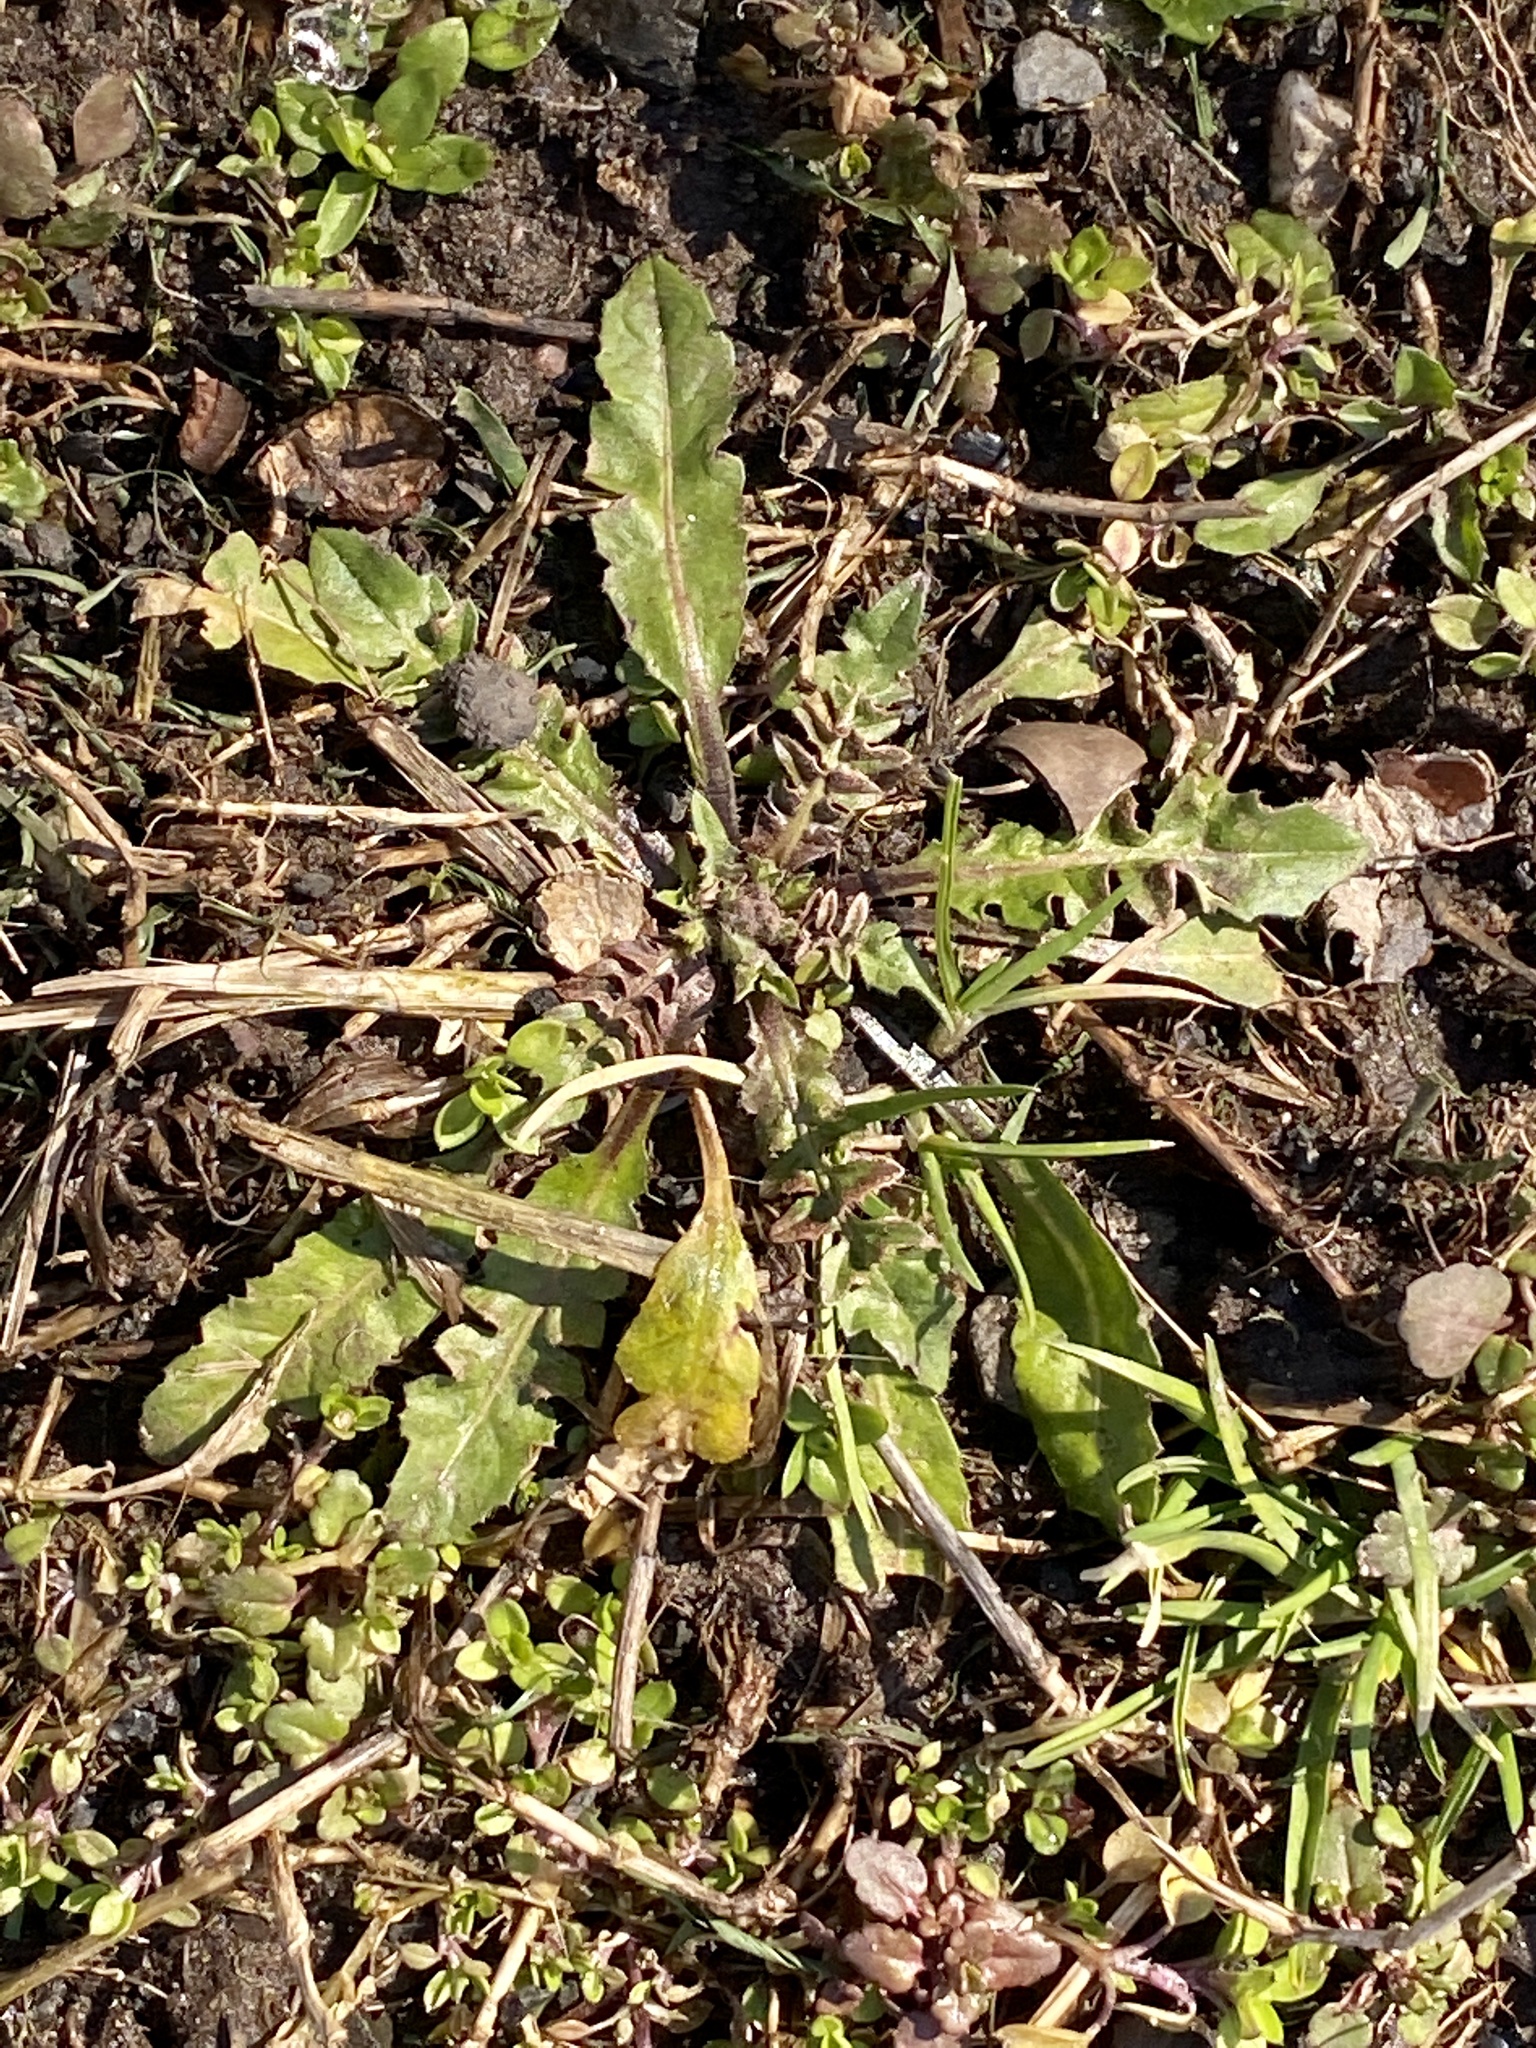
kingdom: Plantae
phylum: Tracheophyta
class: Magnoliopsida
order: Brassicales
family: Brassicaceae
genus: Capsella
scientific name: Capsella bursa-pastoris
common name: Shepherd's purse
